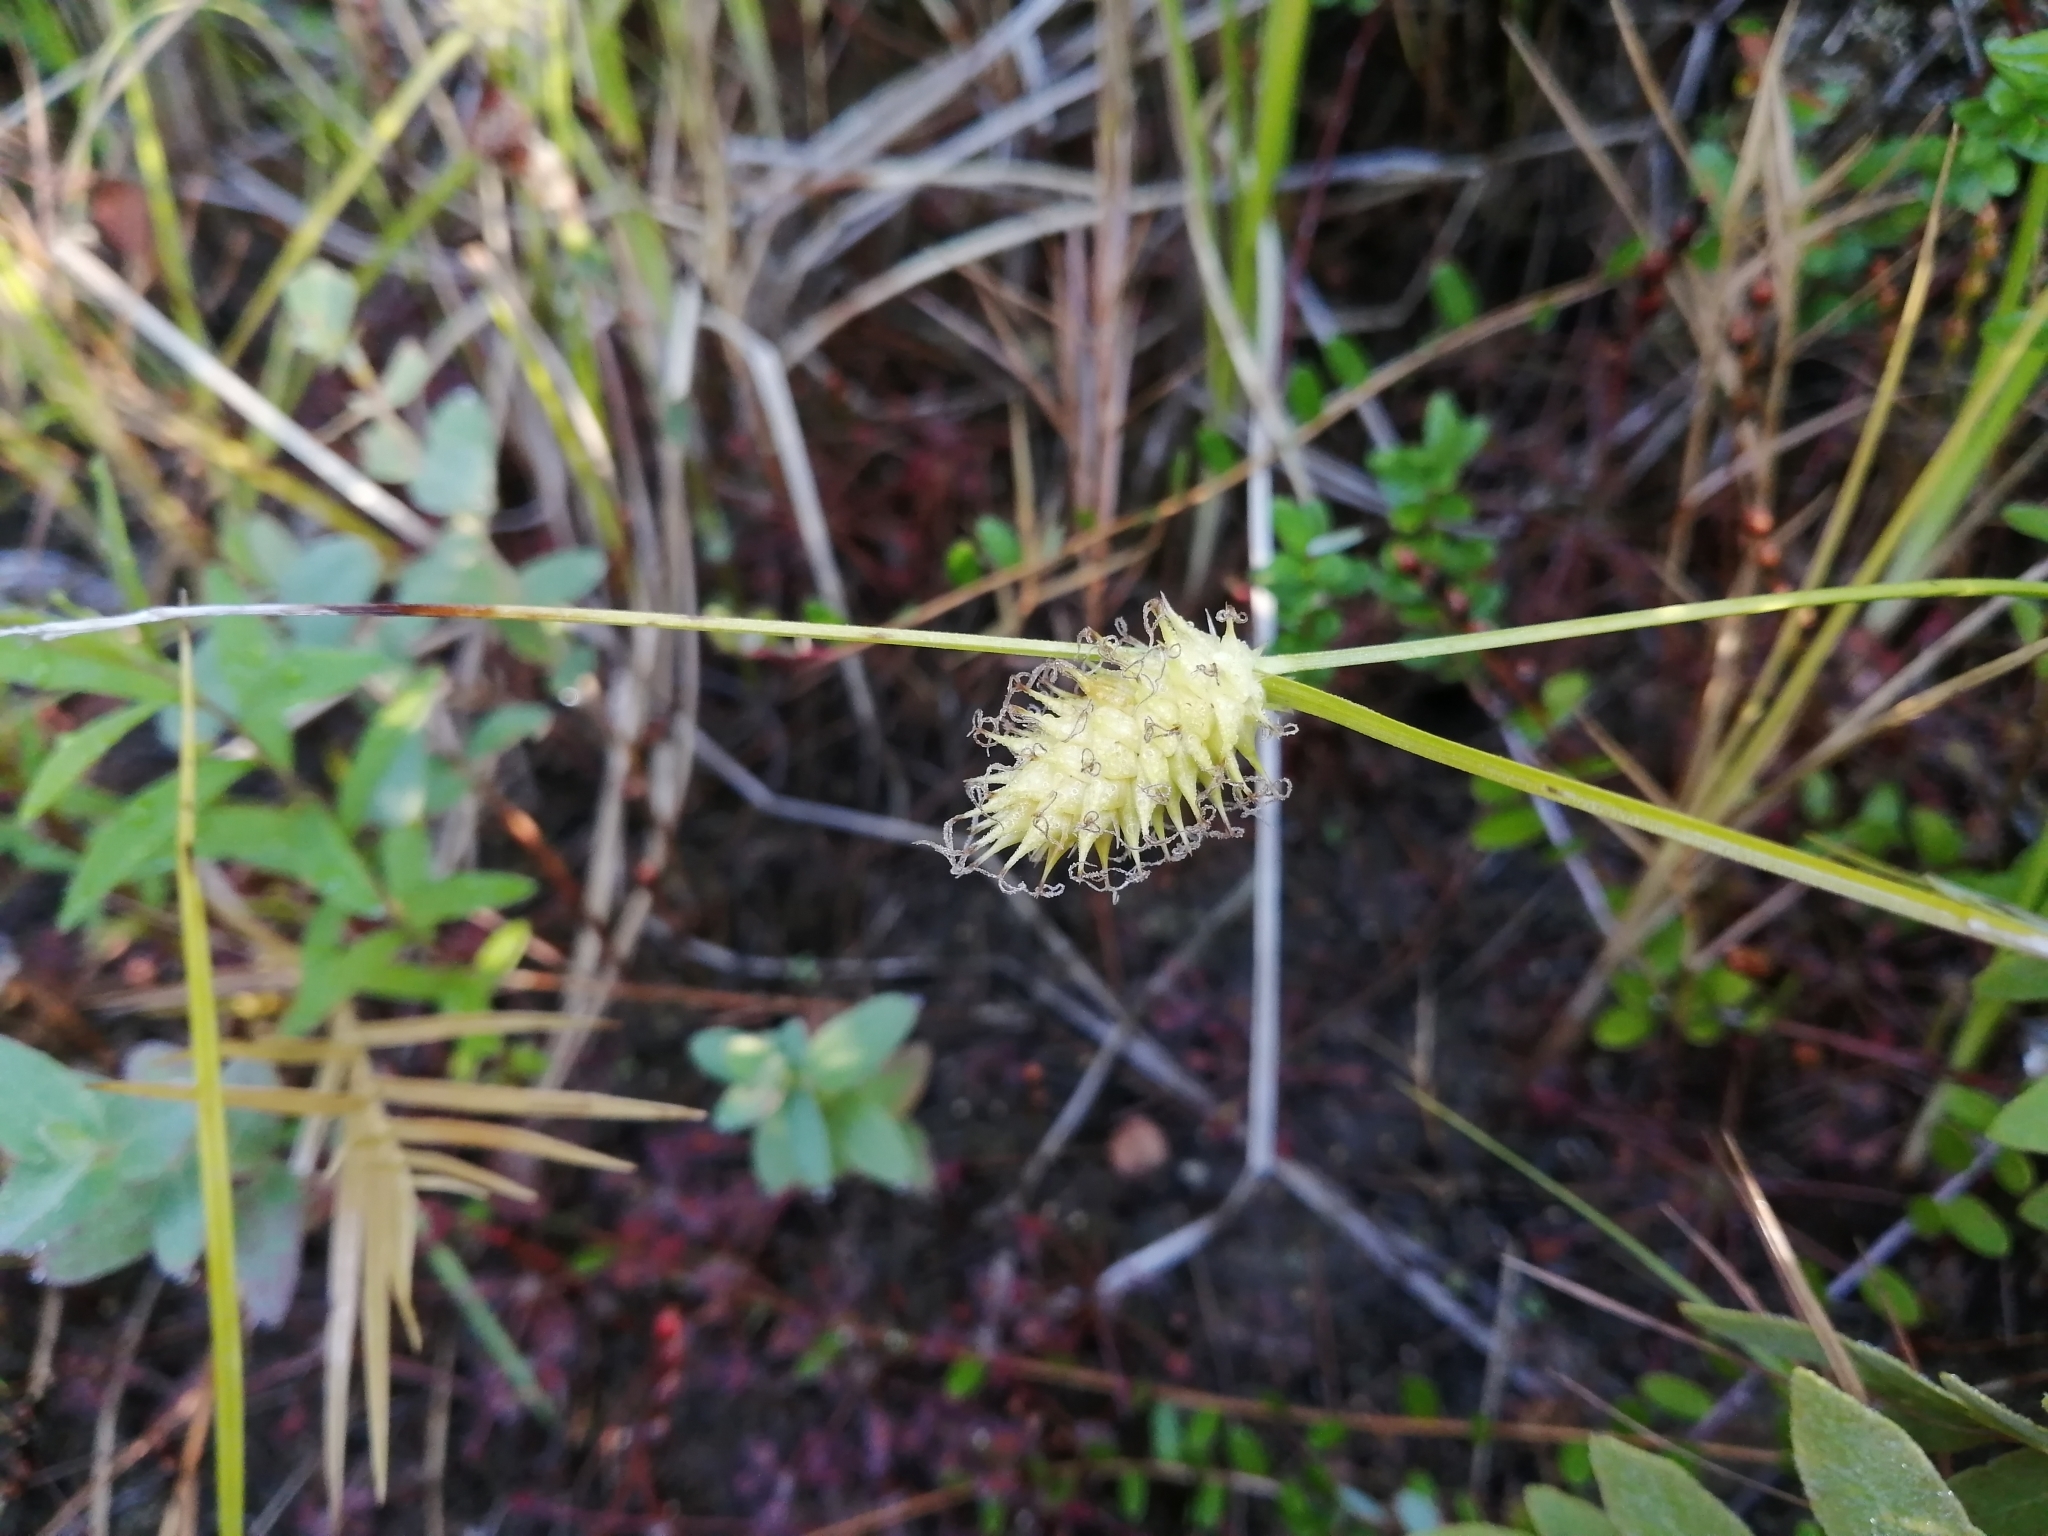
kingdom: Plantae
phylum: Tracheophyta
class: Liliopsida
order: Poales
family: Cyperaceae
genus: Carex
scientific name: Carex bullata
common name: Button sedge
